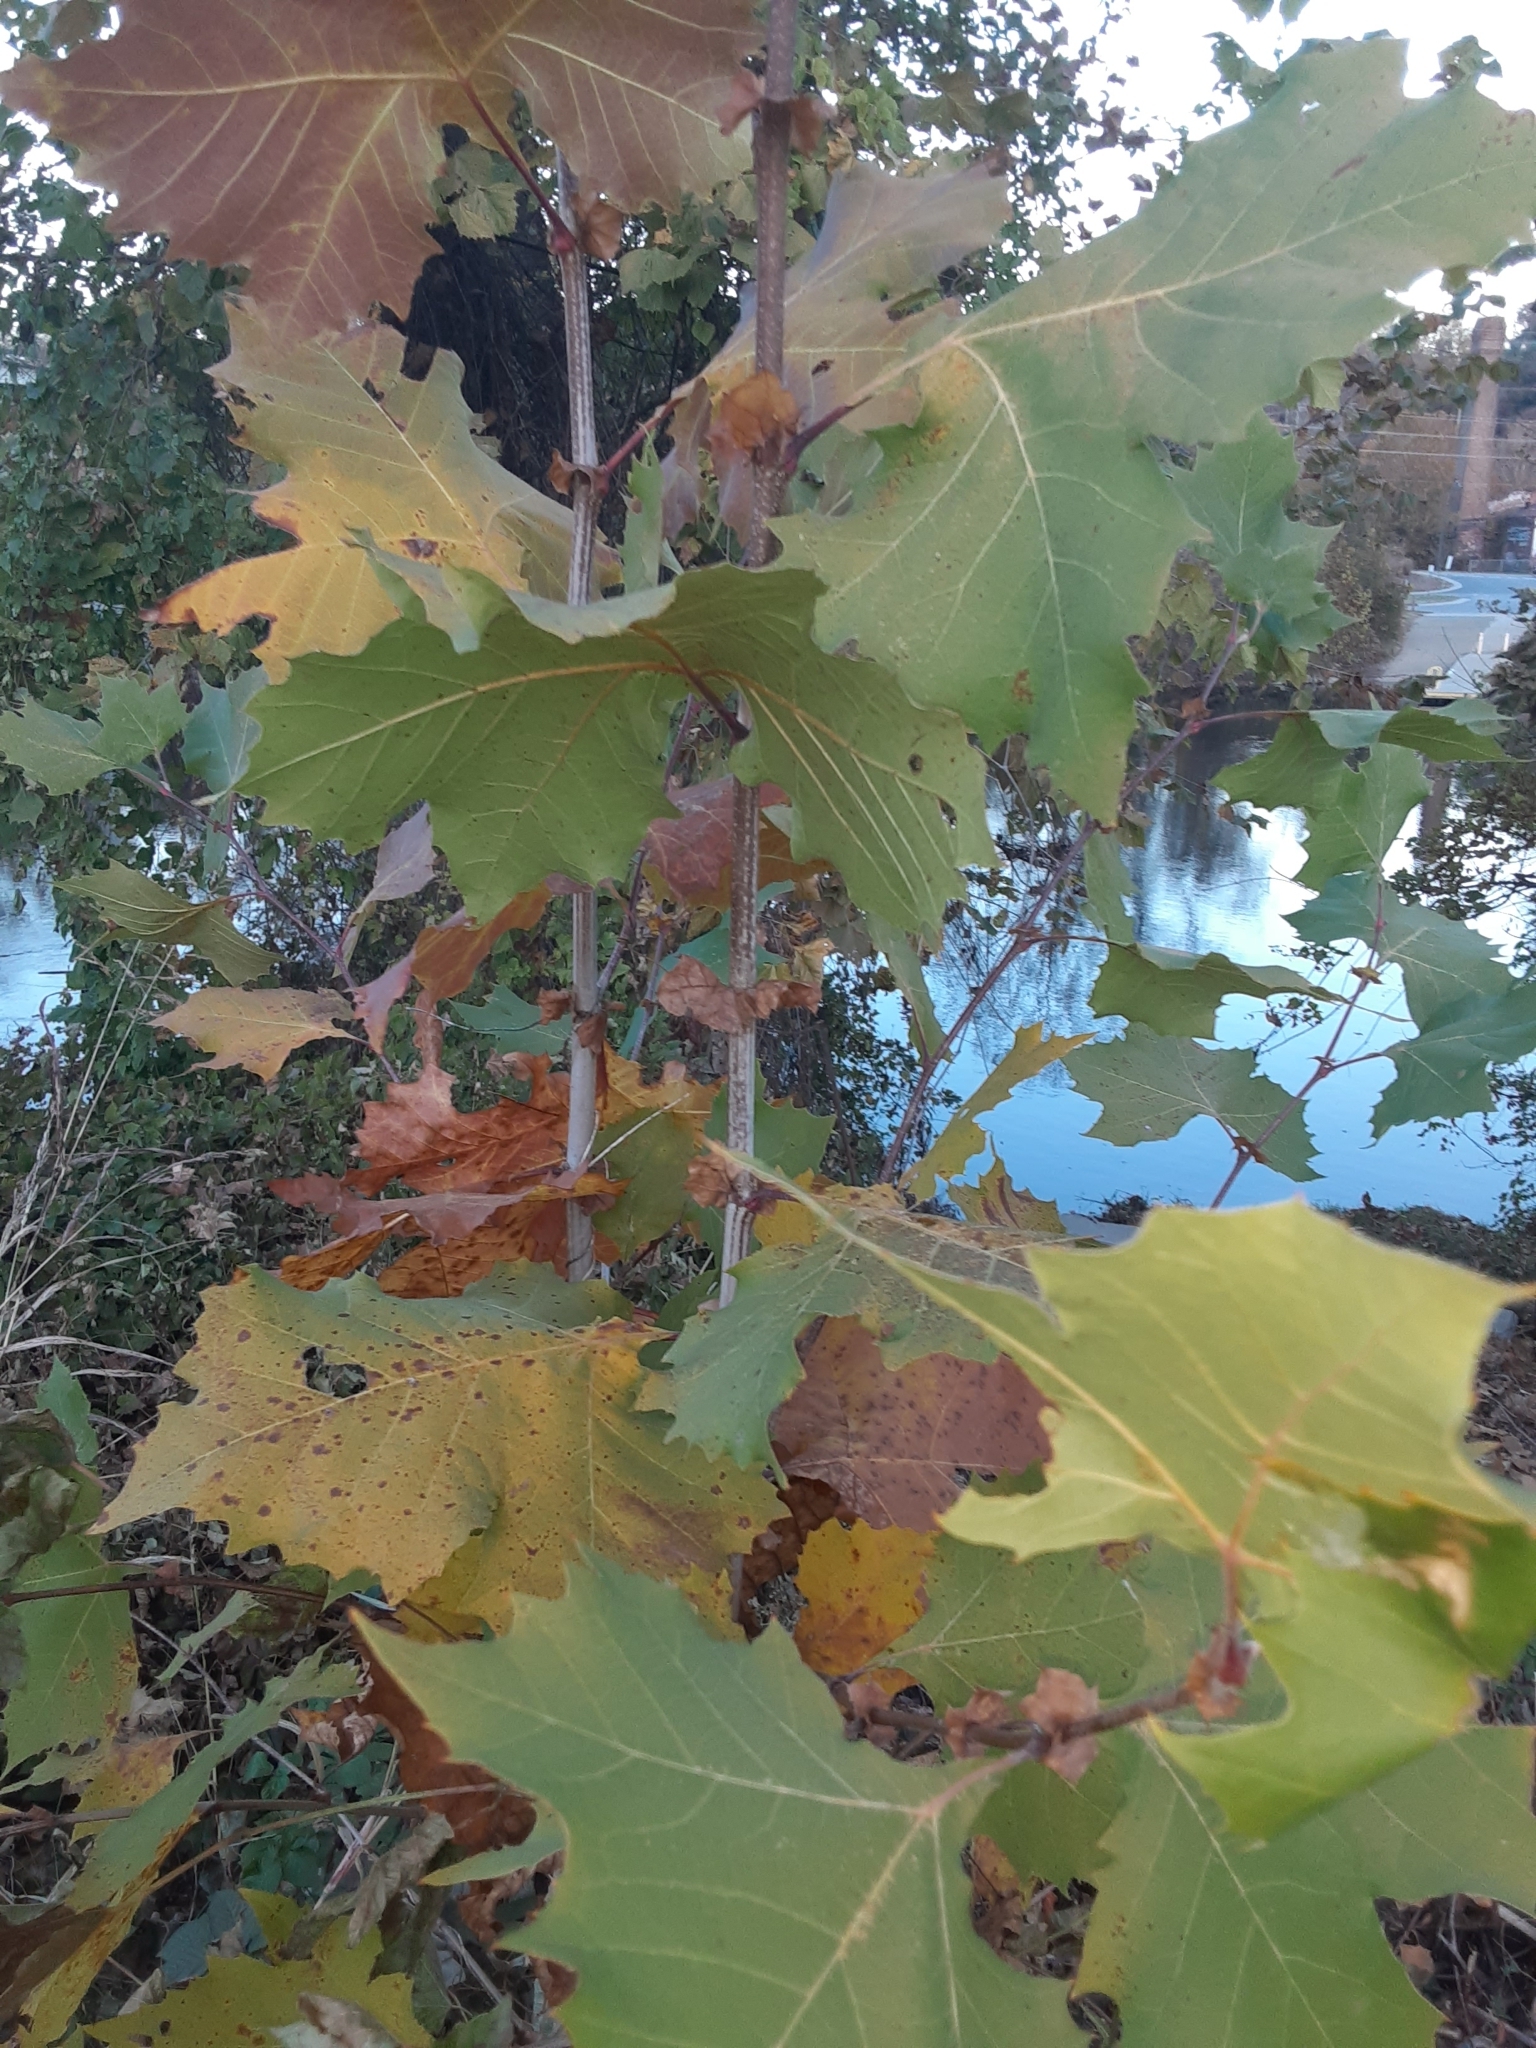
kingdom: Plantae
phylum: Tracheophyta
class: Magnoliopsida
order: Proteales
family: Platanaceae
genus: Platanus
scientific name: Platanus occidentalis
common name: American sycamore
